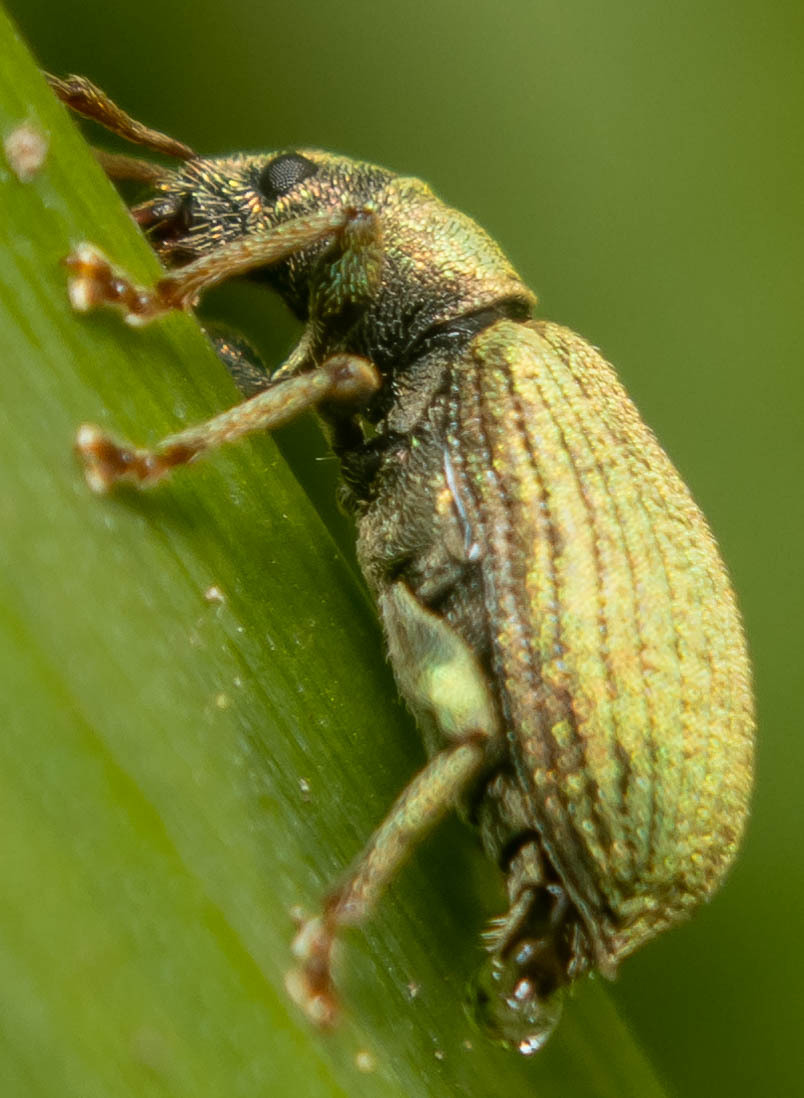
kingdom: Animalia
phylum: Arthropoda
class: Insecta
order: Coleoptera
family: Curculionidae
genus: Phyllobius
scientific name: Phyllobius pomaceus
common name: Green nettle weevil
